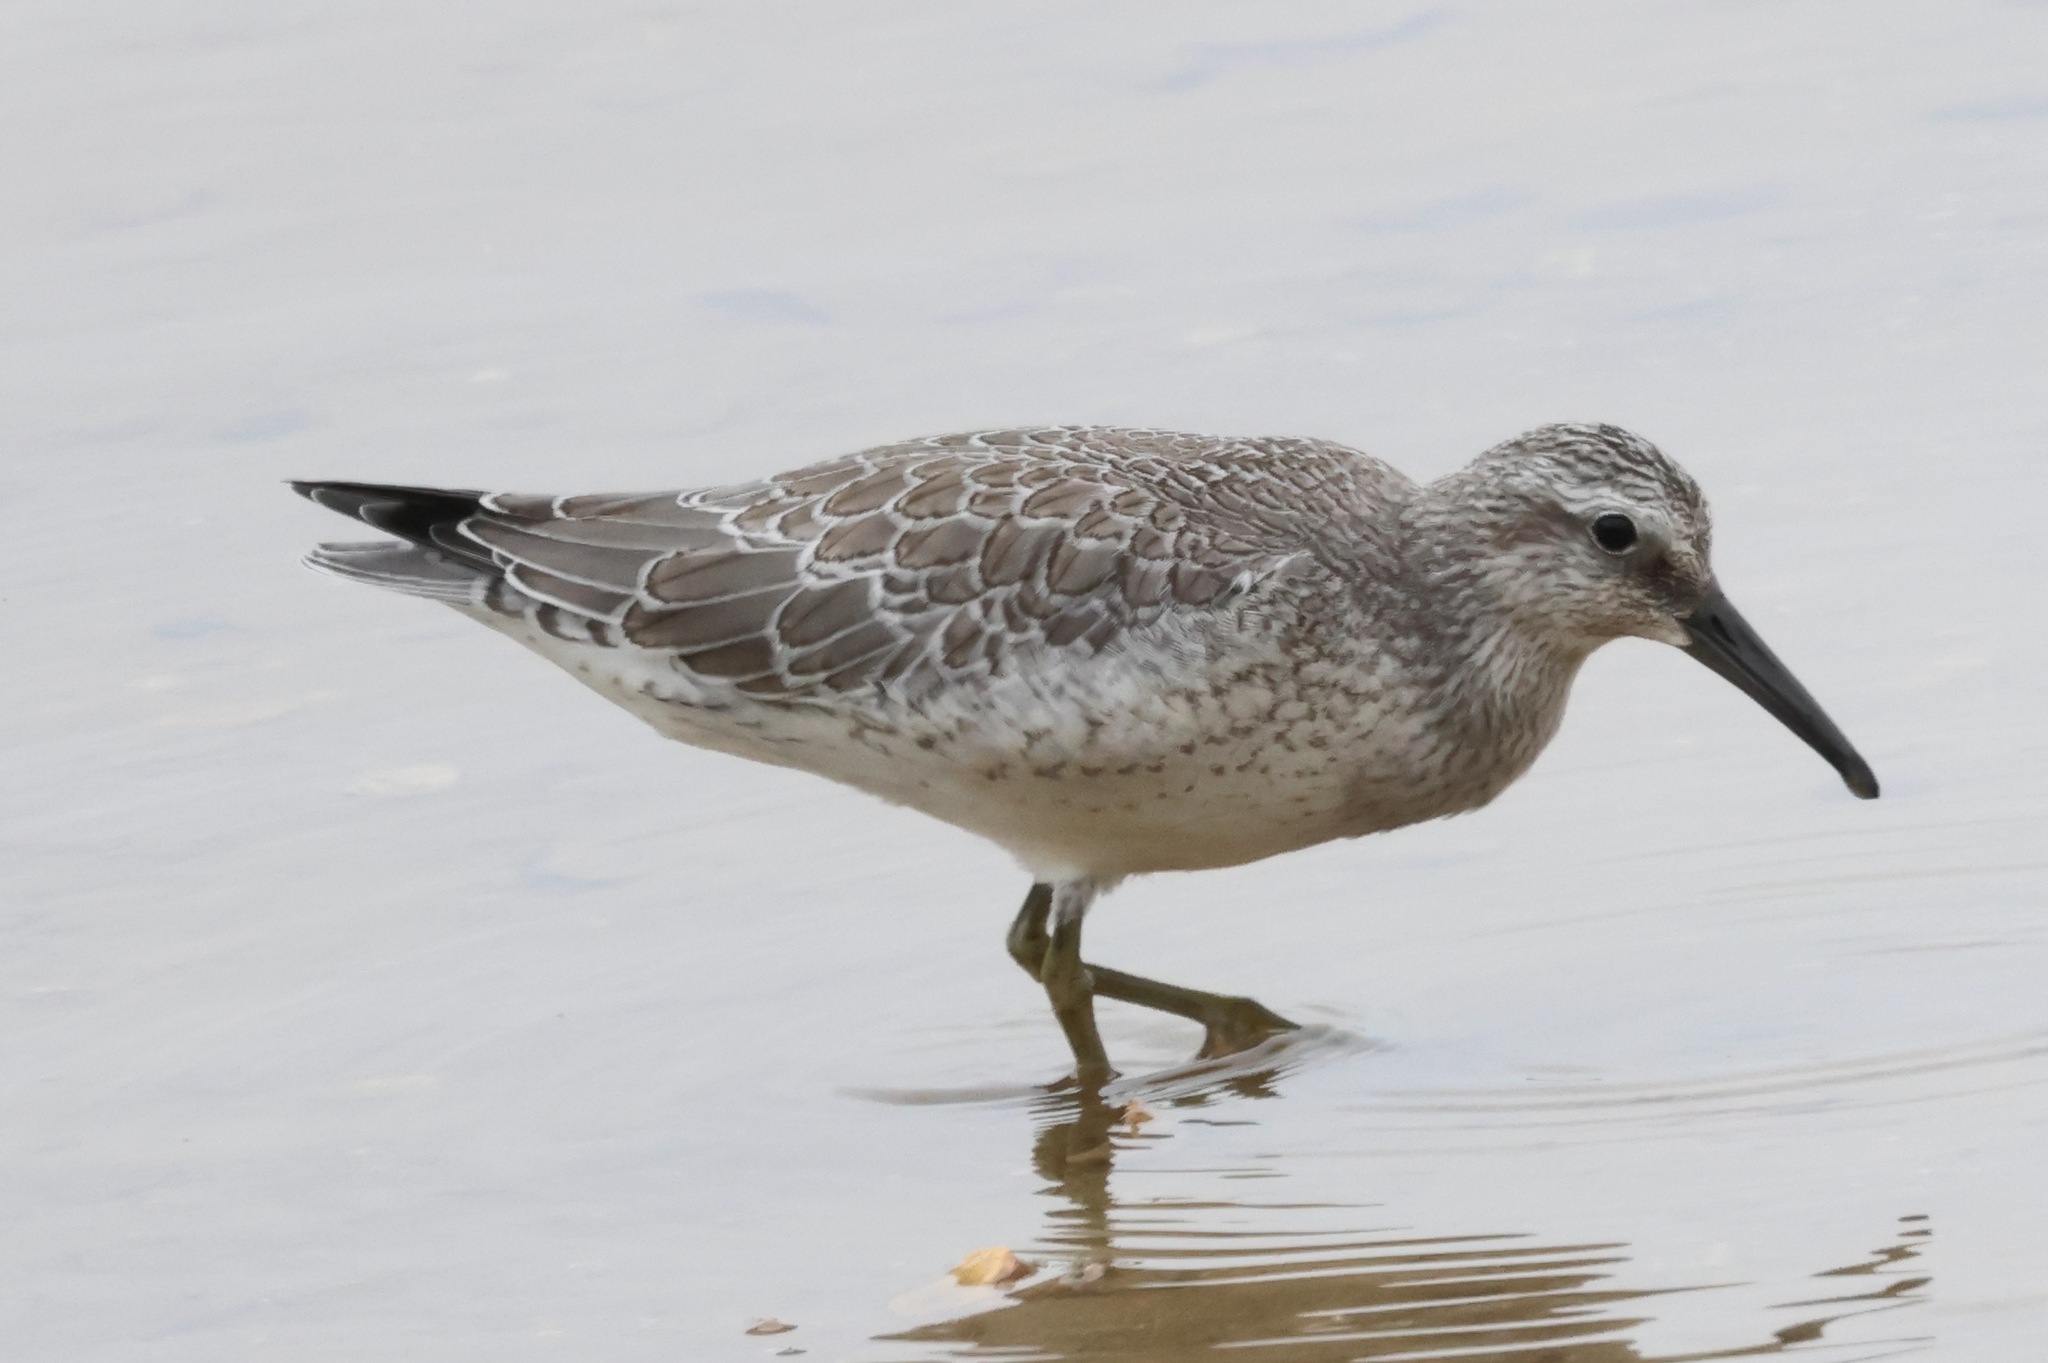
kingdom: Animalia
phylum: Chordata
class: Aves
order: Charadriiformes
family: Scolopacidae
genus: Calidris
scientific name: Calidris canutus
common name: Red knot
